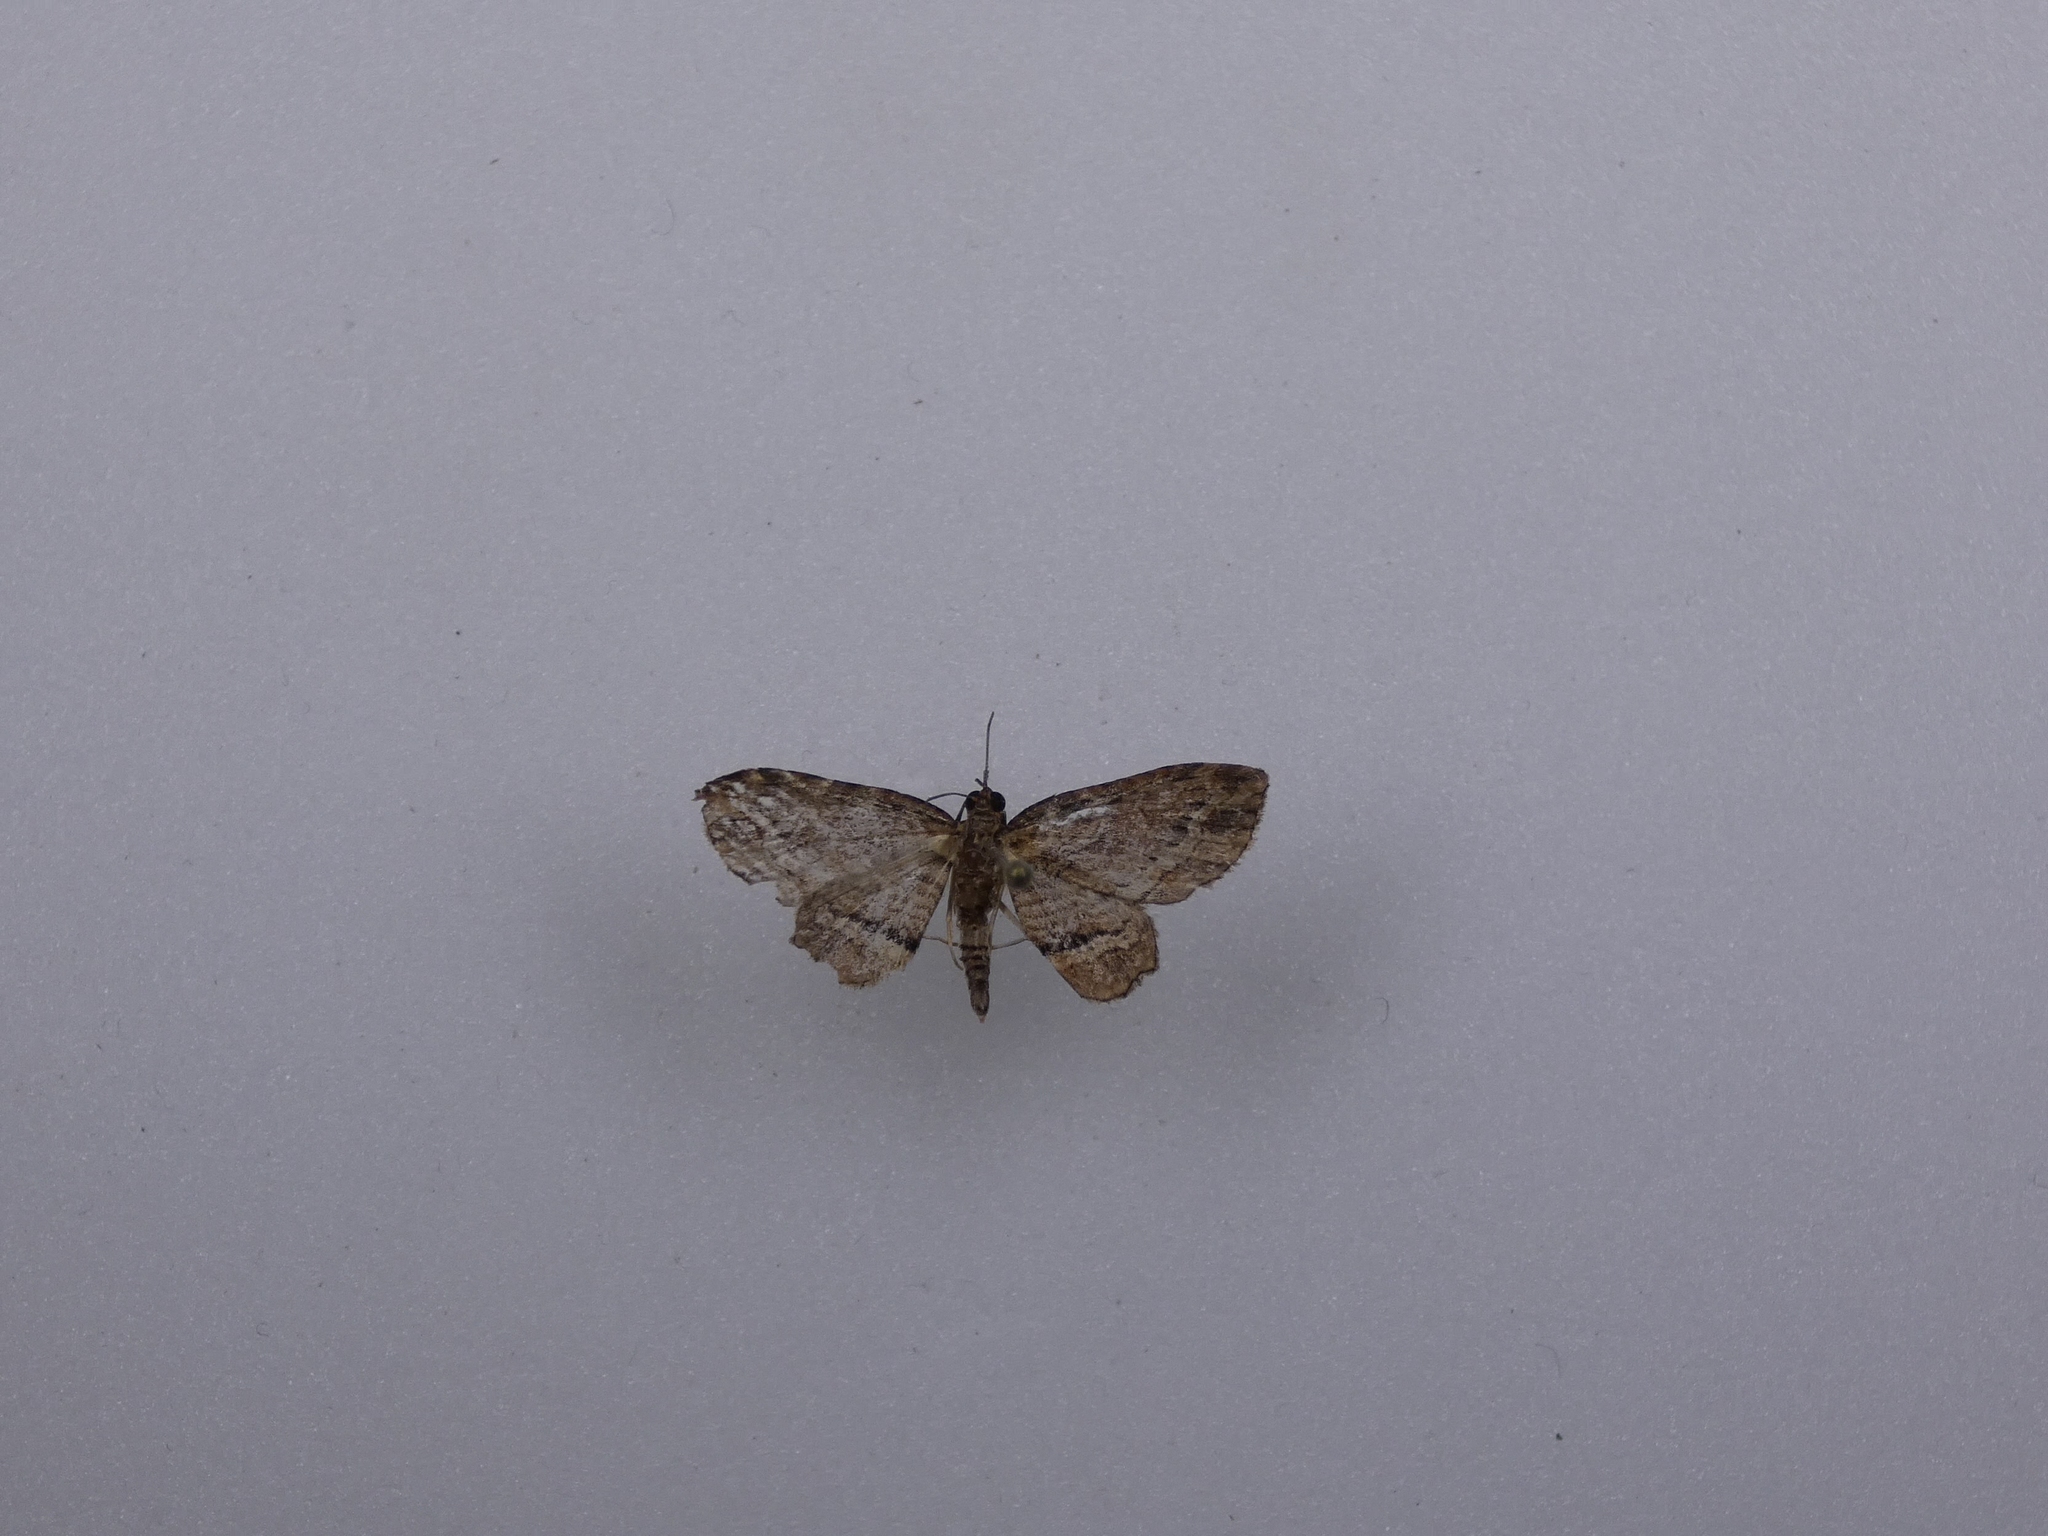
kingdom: Animalia
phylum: Arthropoda
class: Insecta
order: Lepidoptera
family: Geometridae
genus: Chloroclystis
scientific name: Chloroclystis filata
